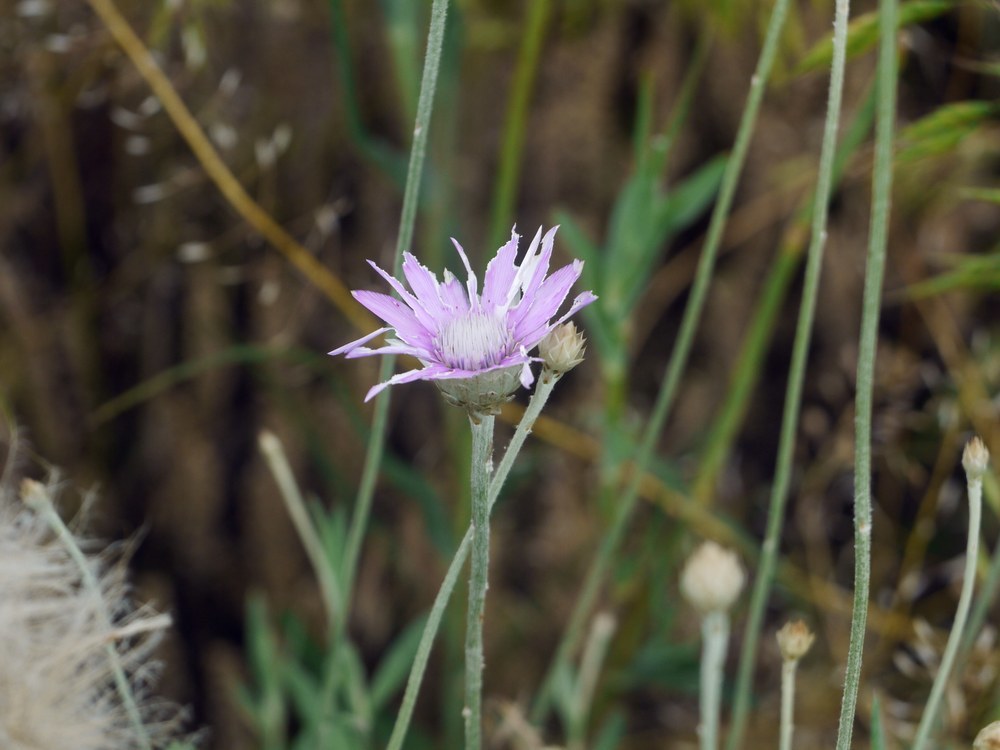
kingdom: Plantae
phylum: Tracheophyta
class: Magnoliopsida
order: Asterales
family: Asteraceae
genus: Xeranthemum
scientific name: Xeranthemum annuum
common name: Immortelle
